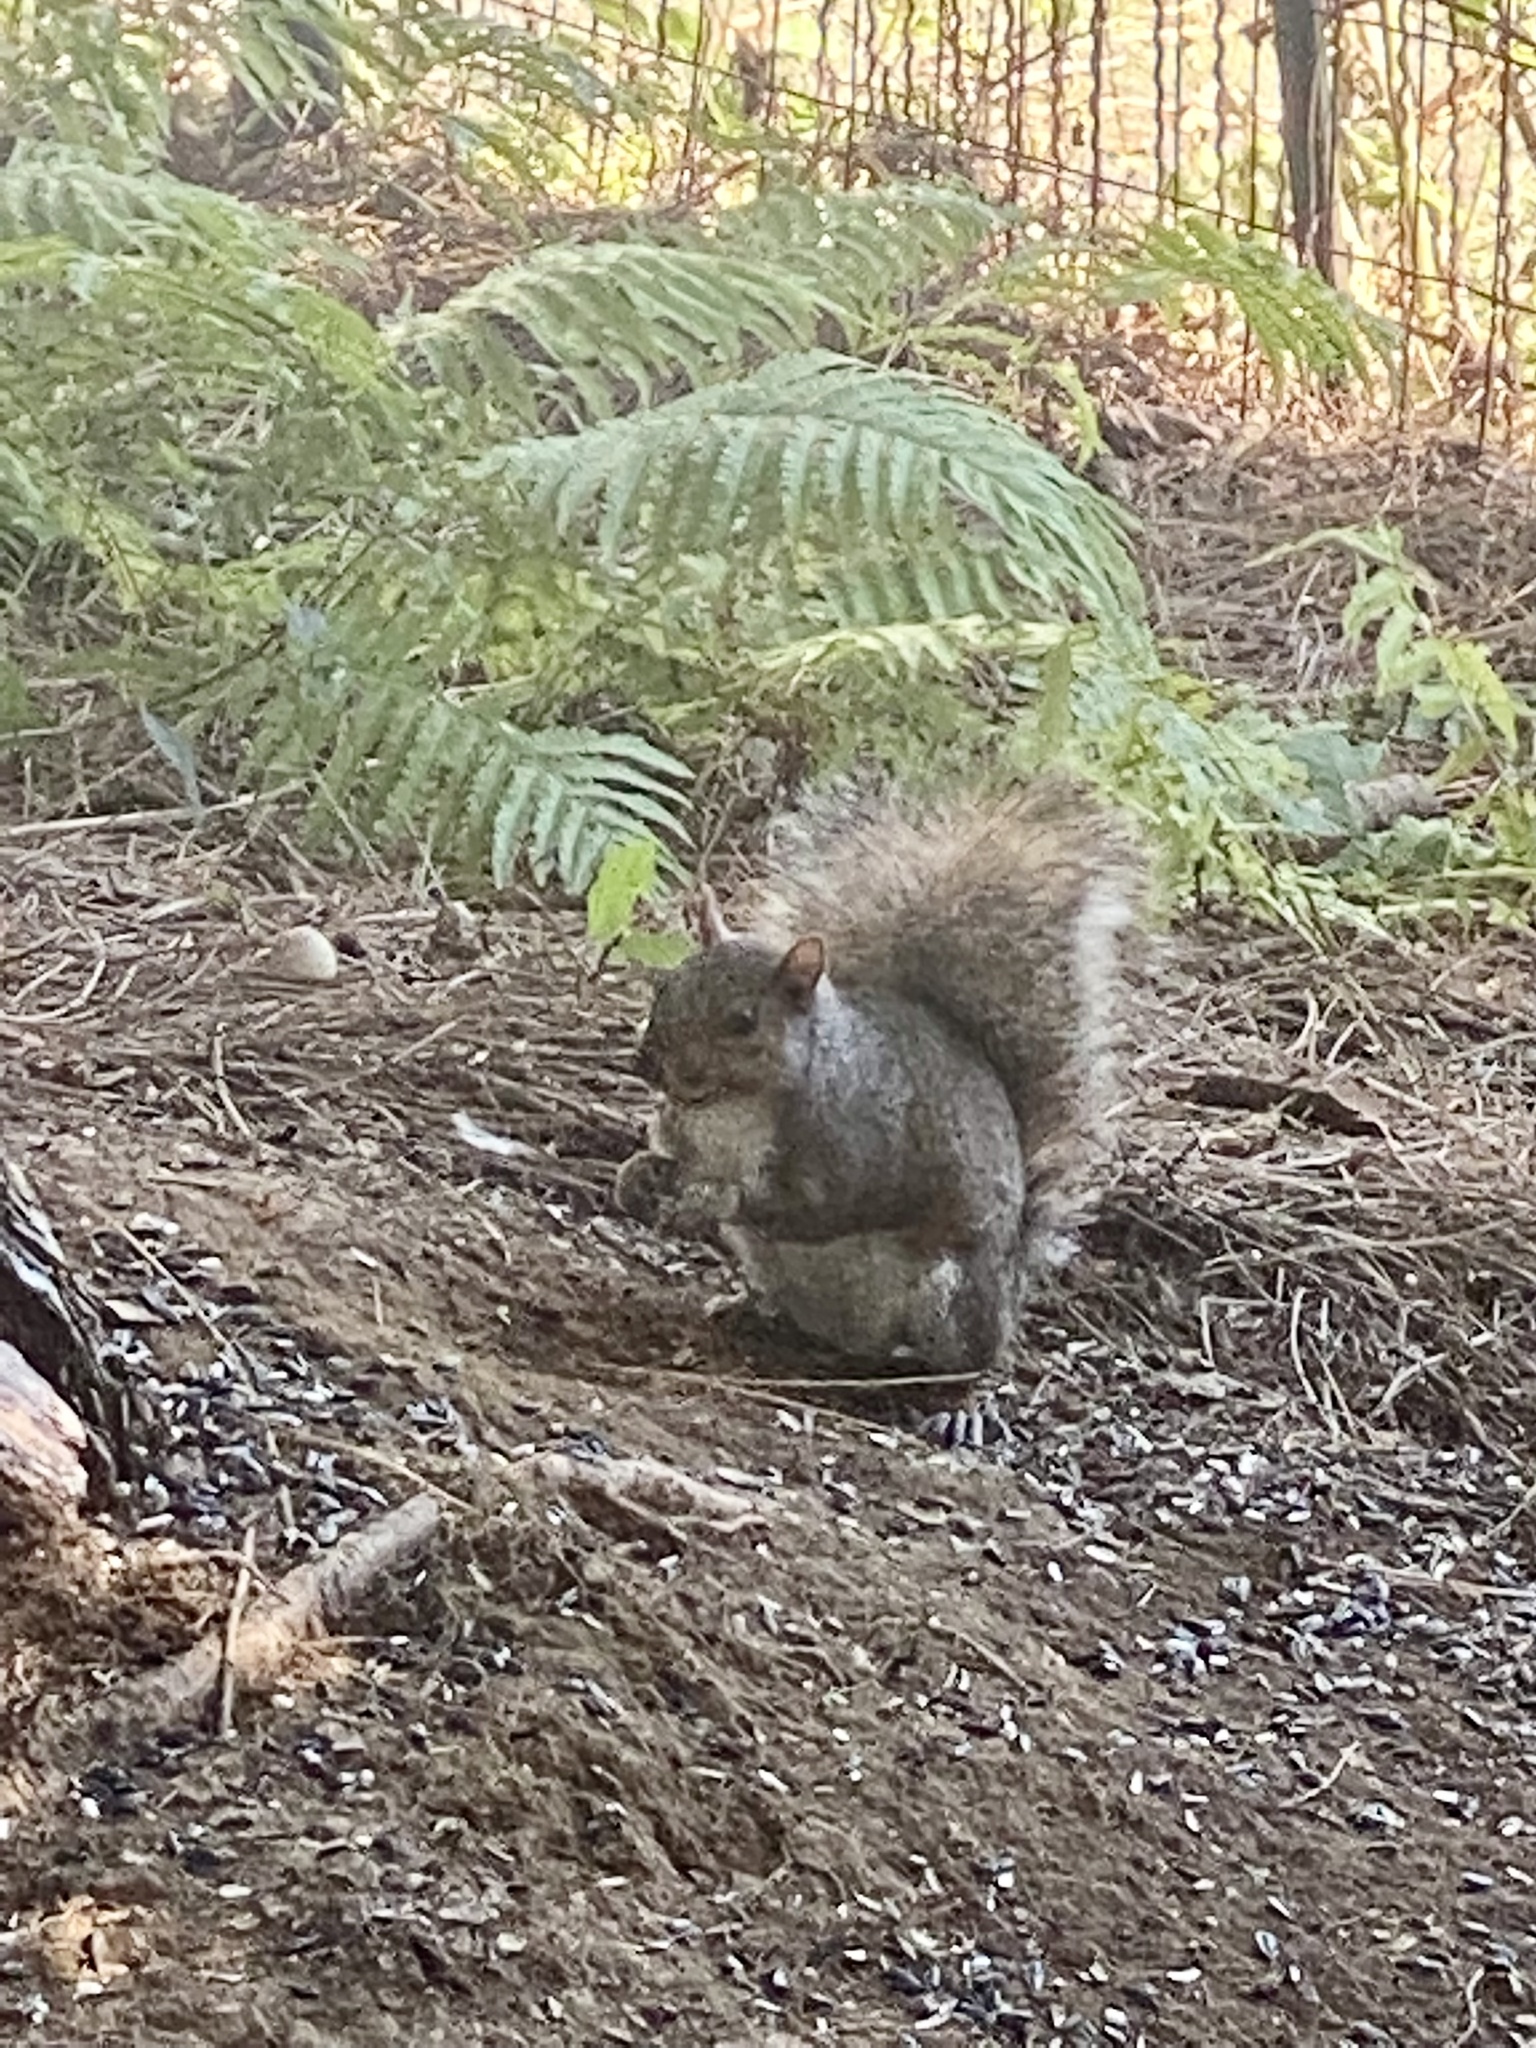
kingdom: Animalia
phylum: Chordata
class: Mammalia
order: Rodentia
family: Sciuridae
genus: Sciurus
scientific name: Sciurus carolinensis
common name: Eastern gray squirrel
